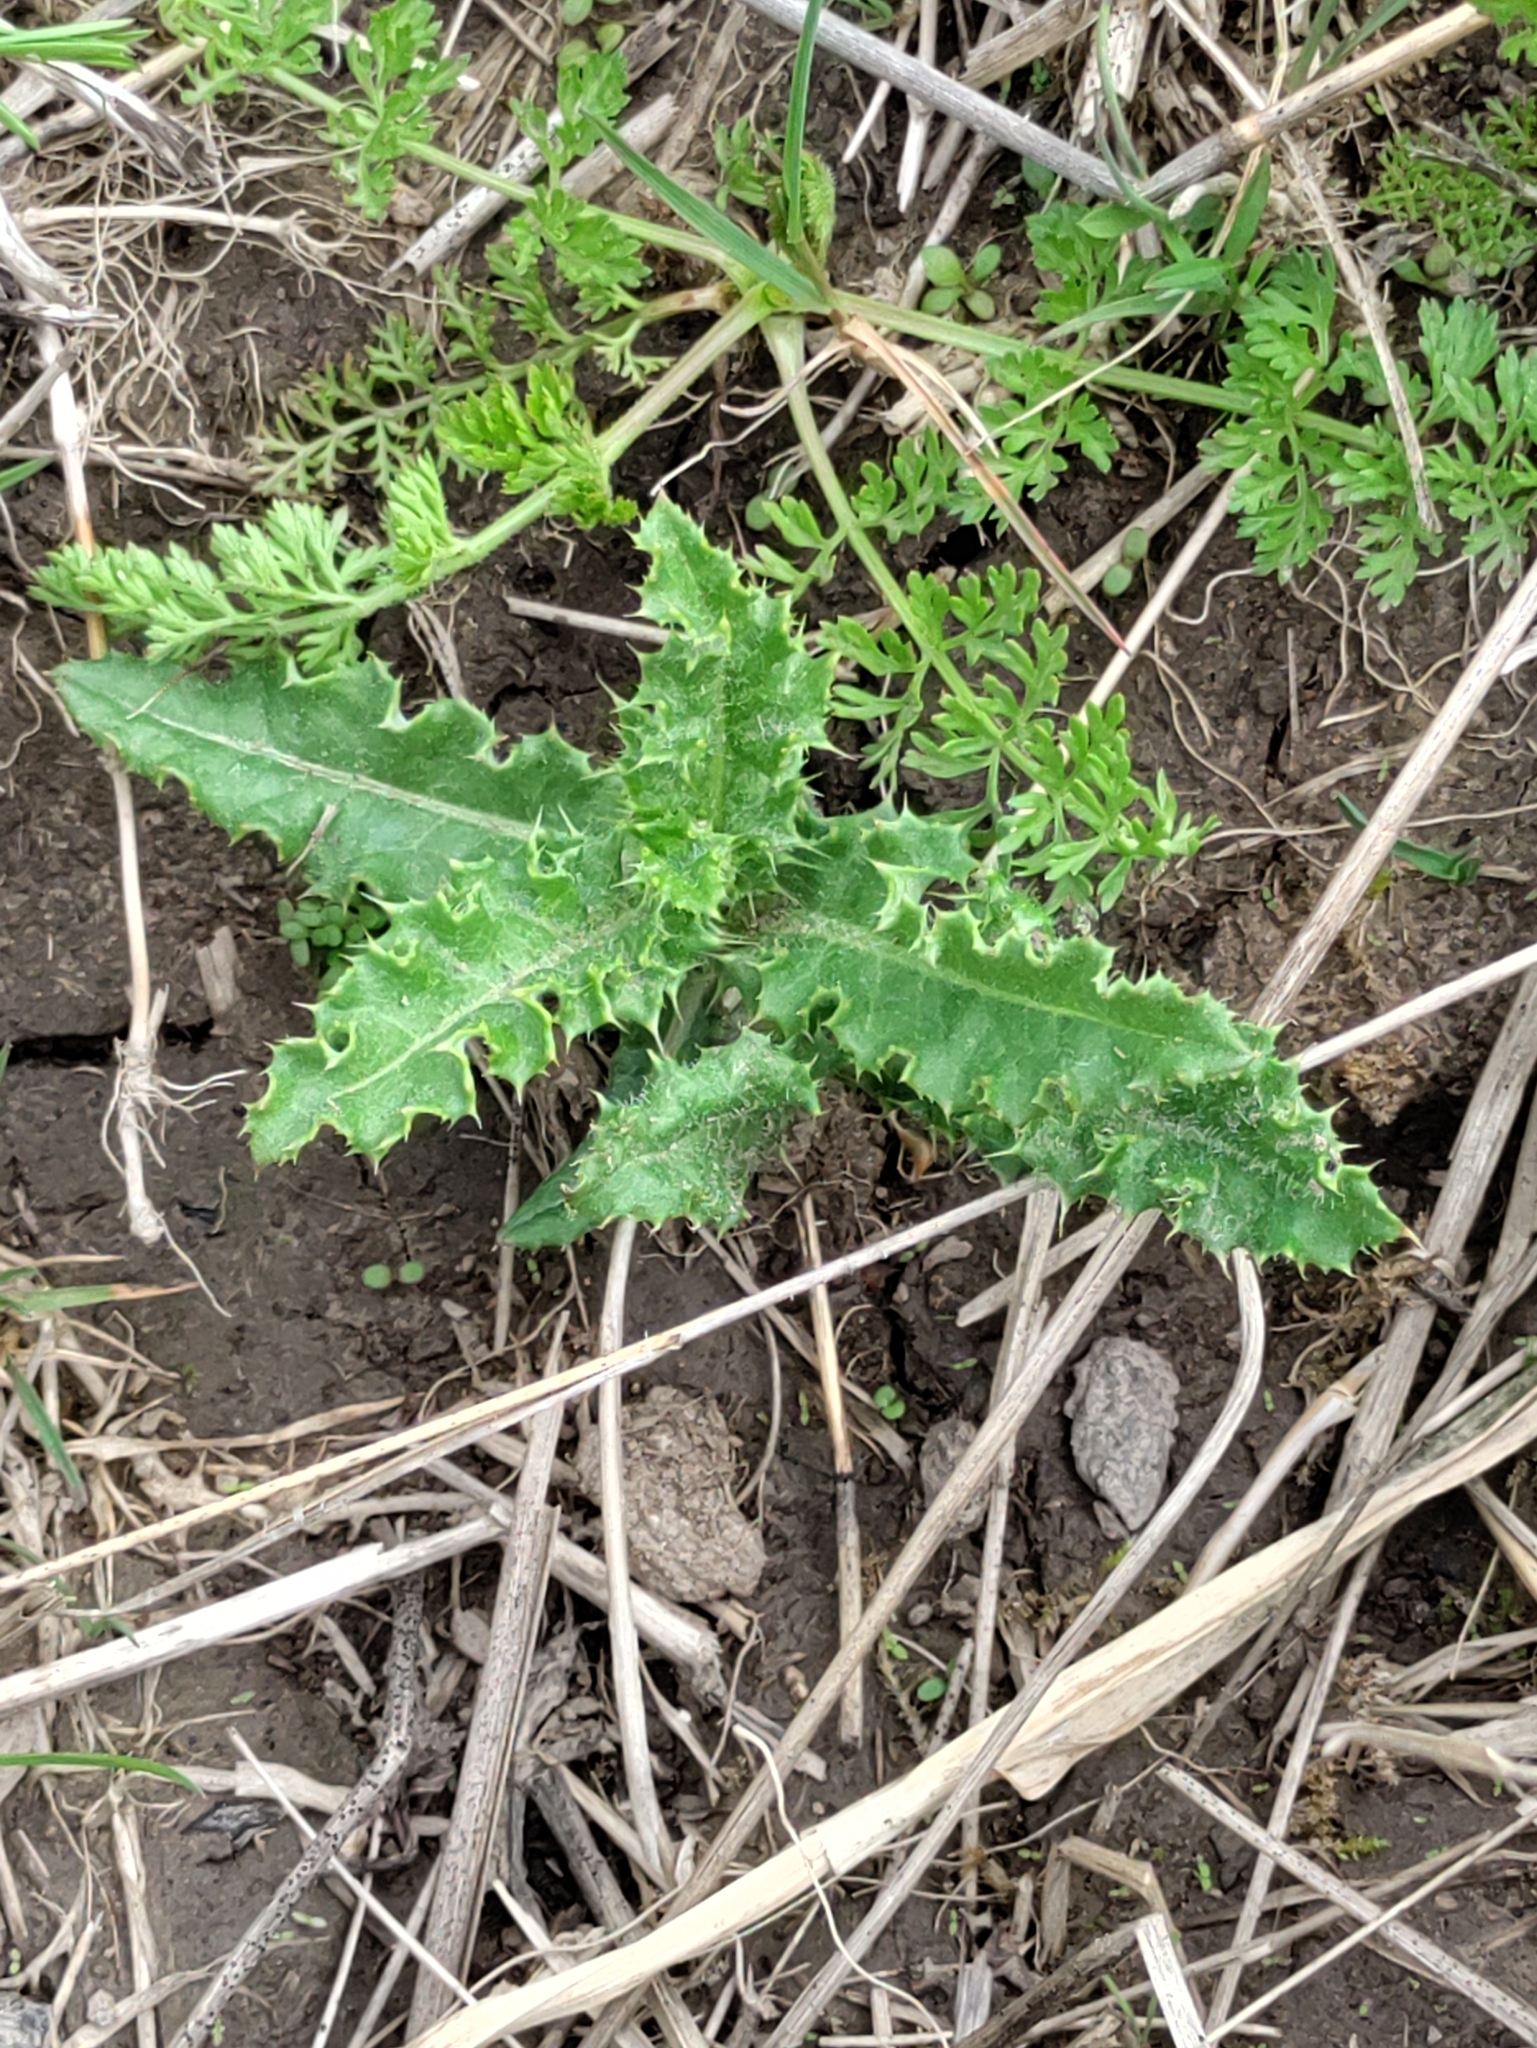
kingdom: Plantae
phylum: Tracheophyta
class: Magnoliopsida
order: Asterales
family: Asteraceae
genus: Cirsium
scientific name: Cirsium arvense
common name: Creeping thistle
